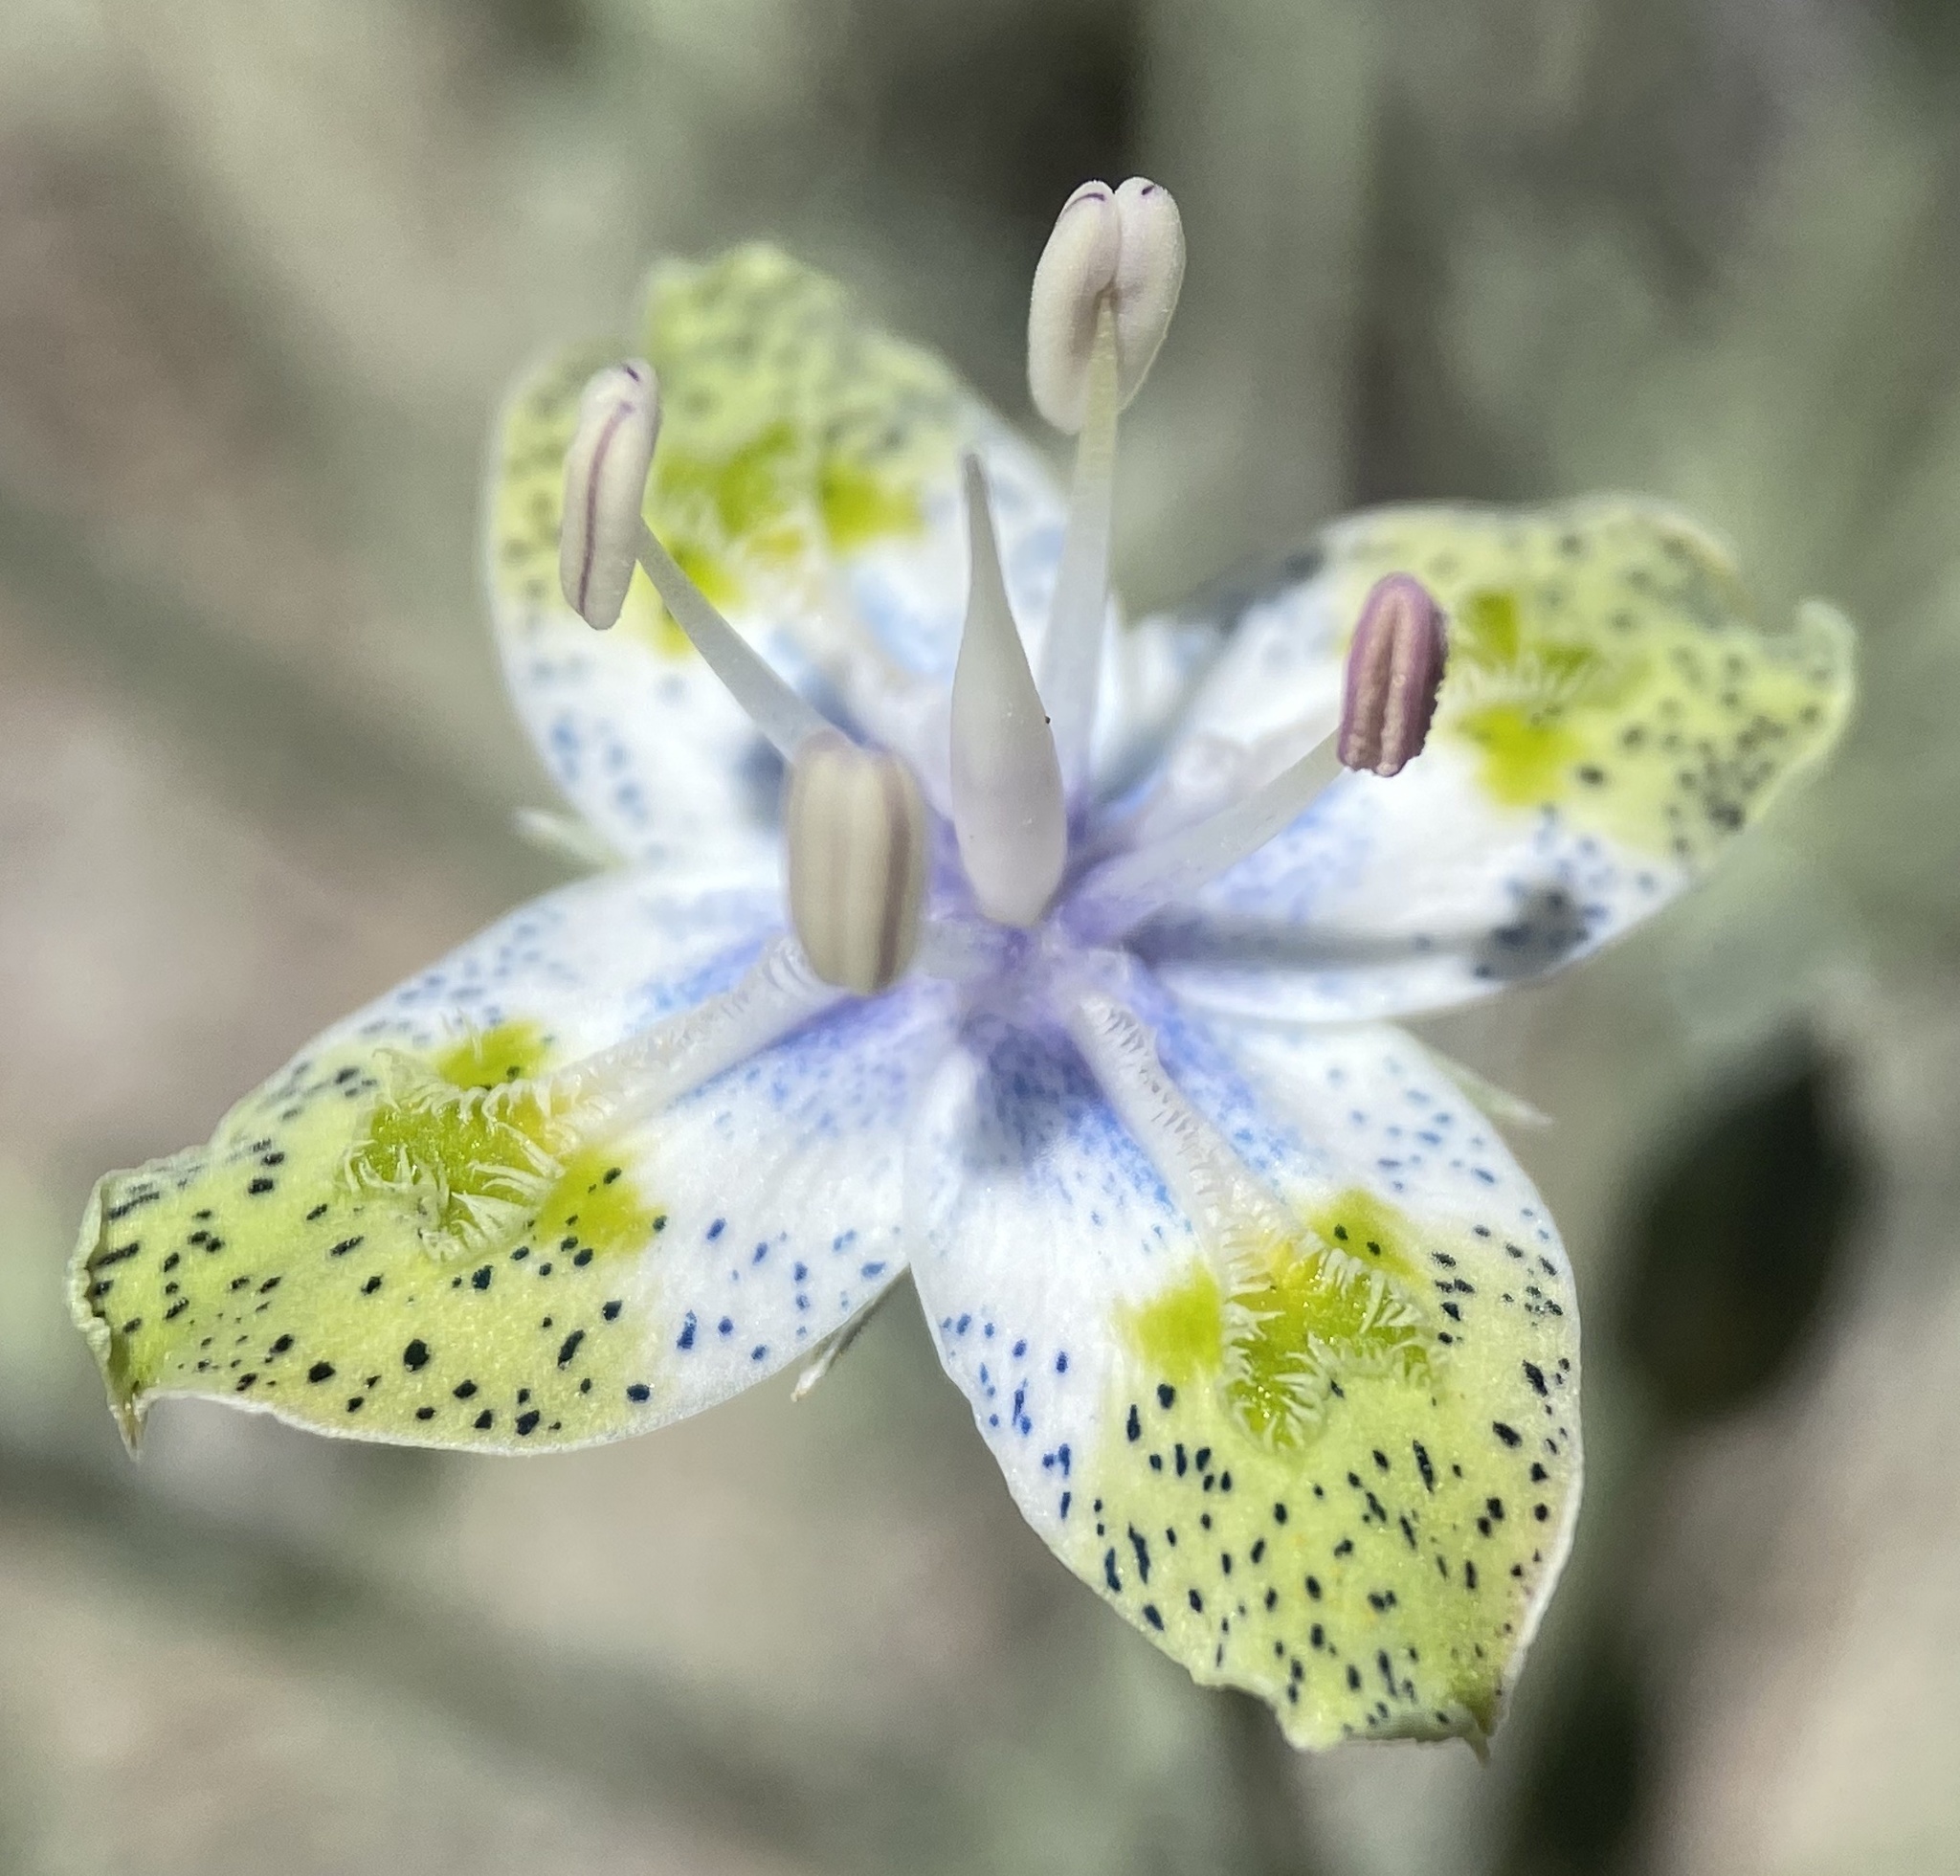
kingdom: Plantae
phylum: Tracheophyta
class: Magnoliopsida
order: Gentianales
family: Gentianaceae
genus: Frasera
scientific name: Frasera albomarginata
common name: Desert frasera
